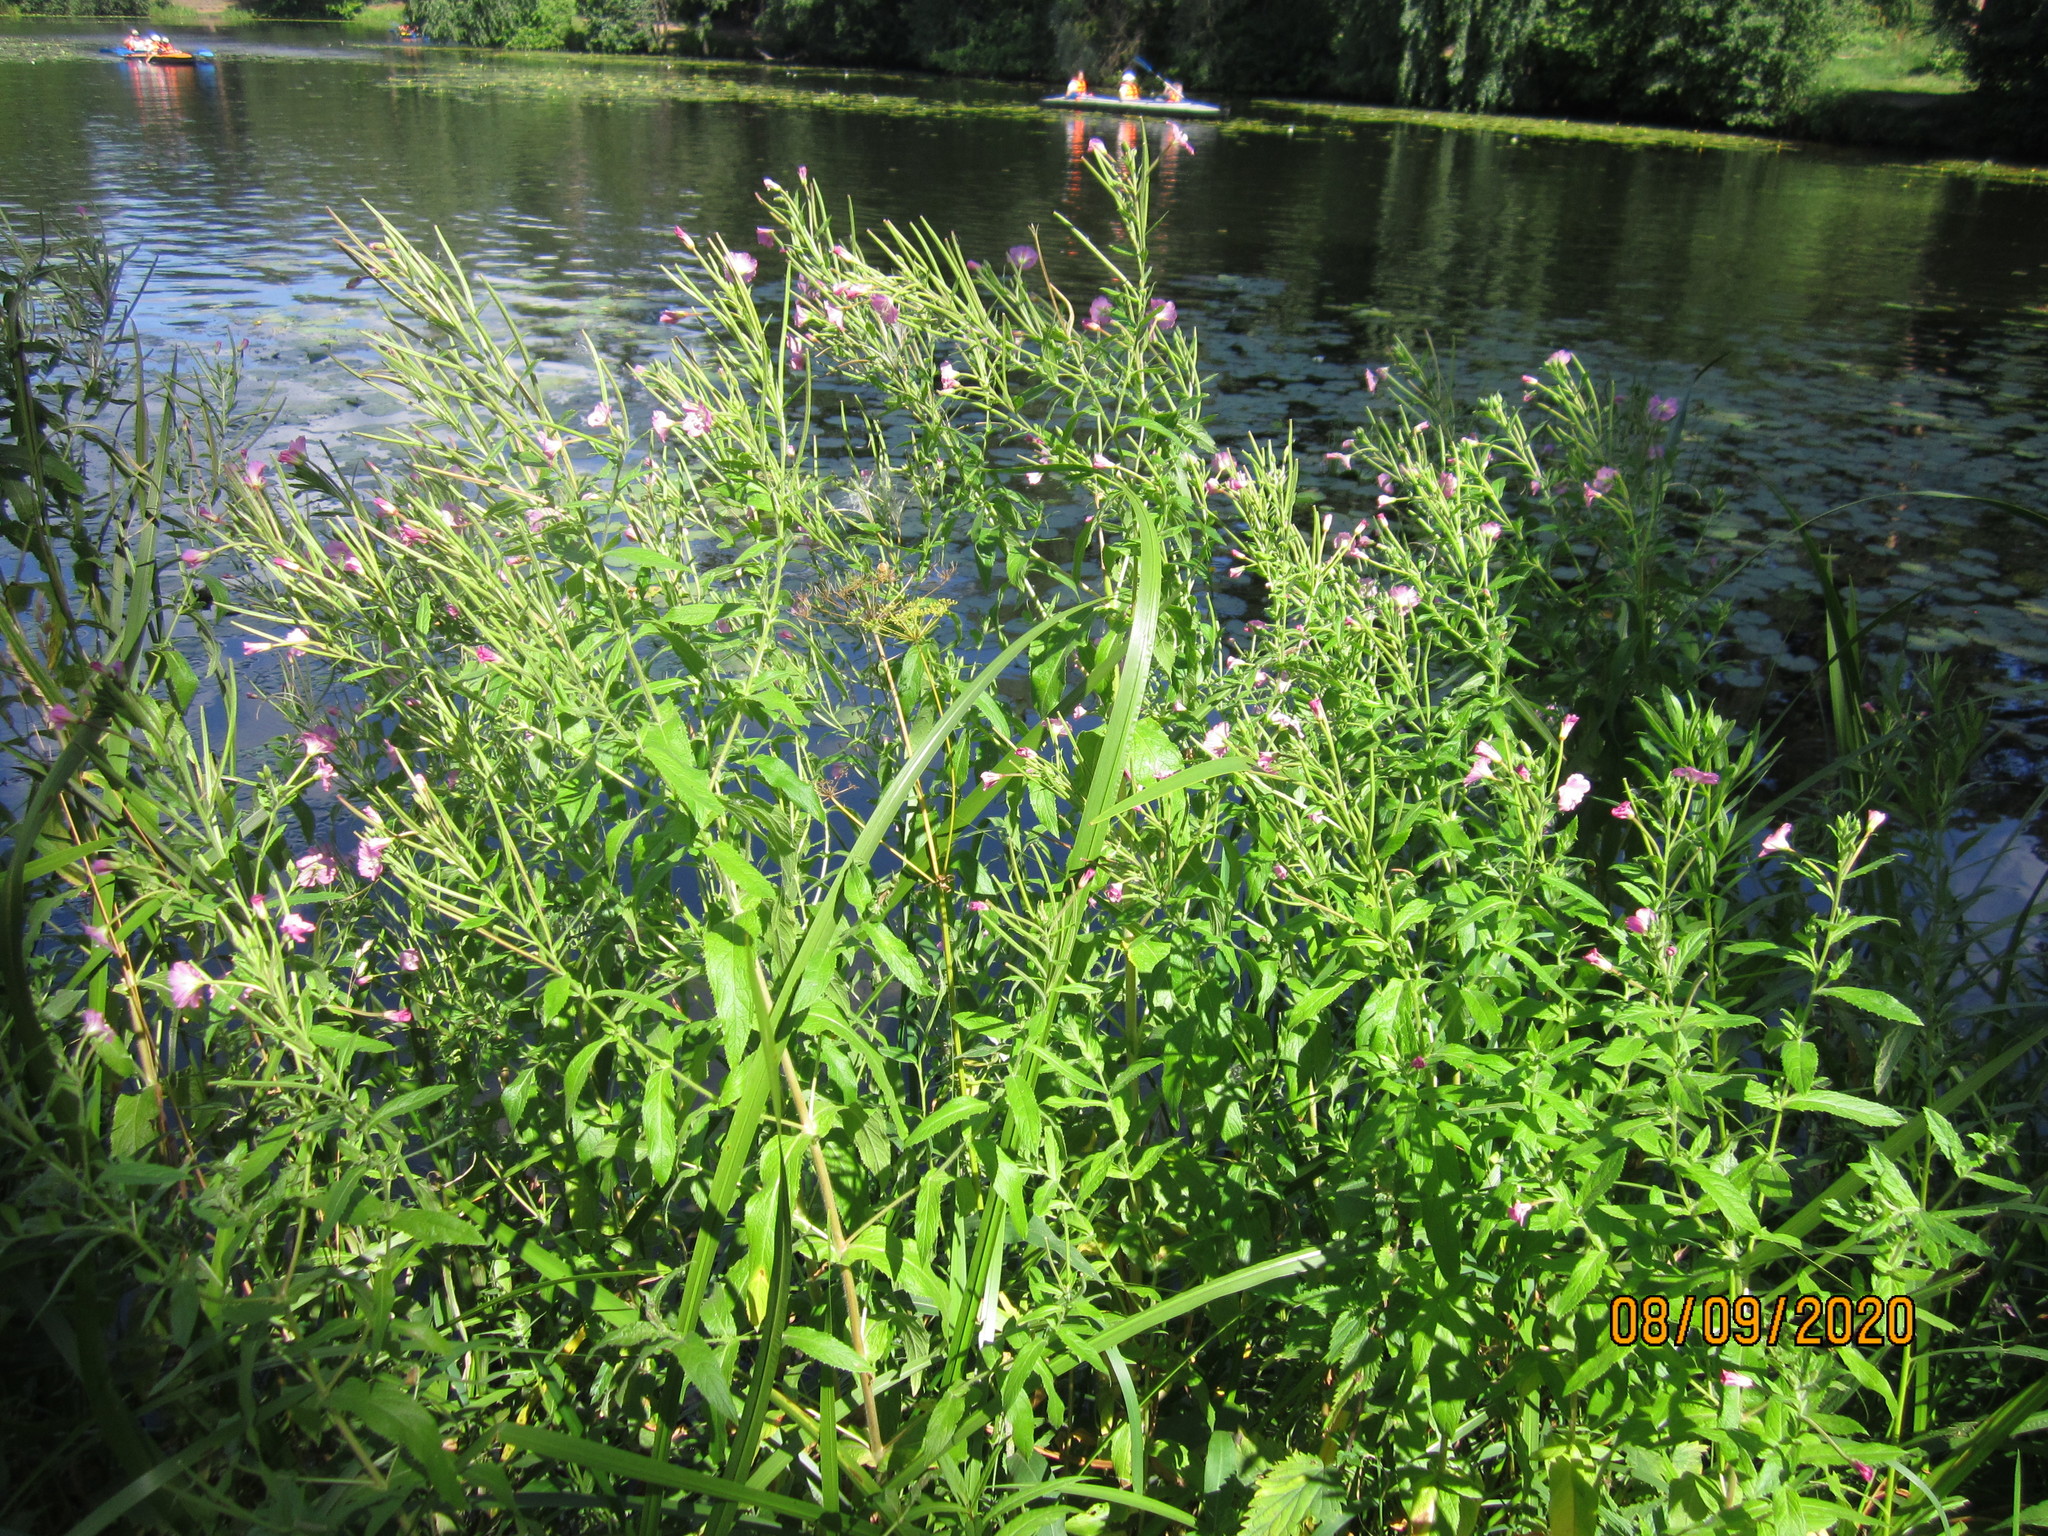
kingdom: Plantae
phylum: Tracheophyta
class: Magnoliopsida
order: Myrtales
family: Onagraceae
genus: Epilobium
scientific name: Epilobium hirsutum
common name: Great willowherb
